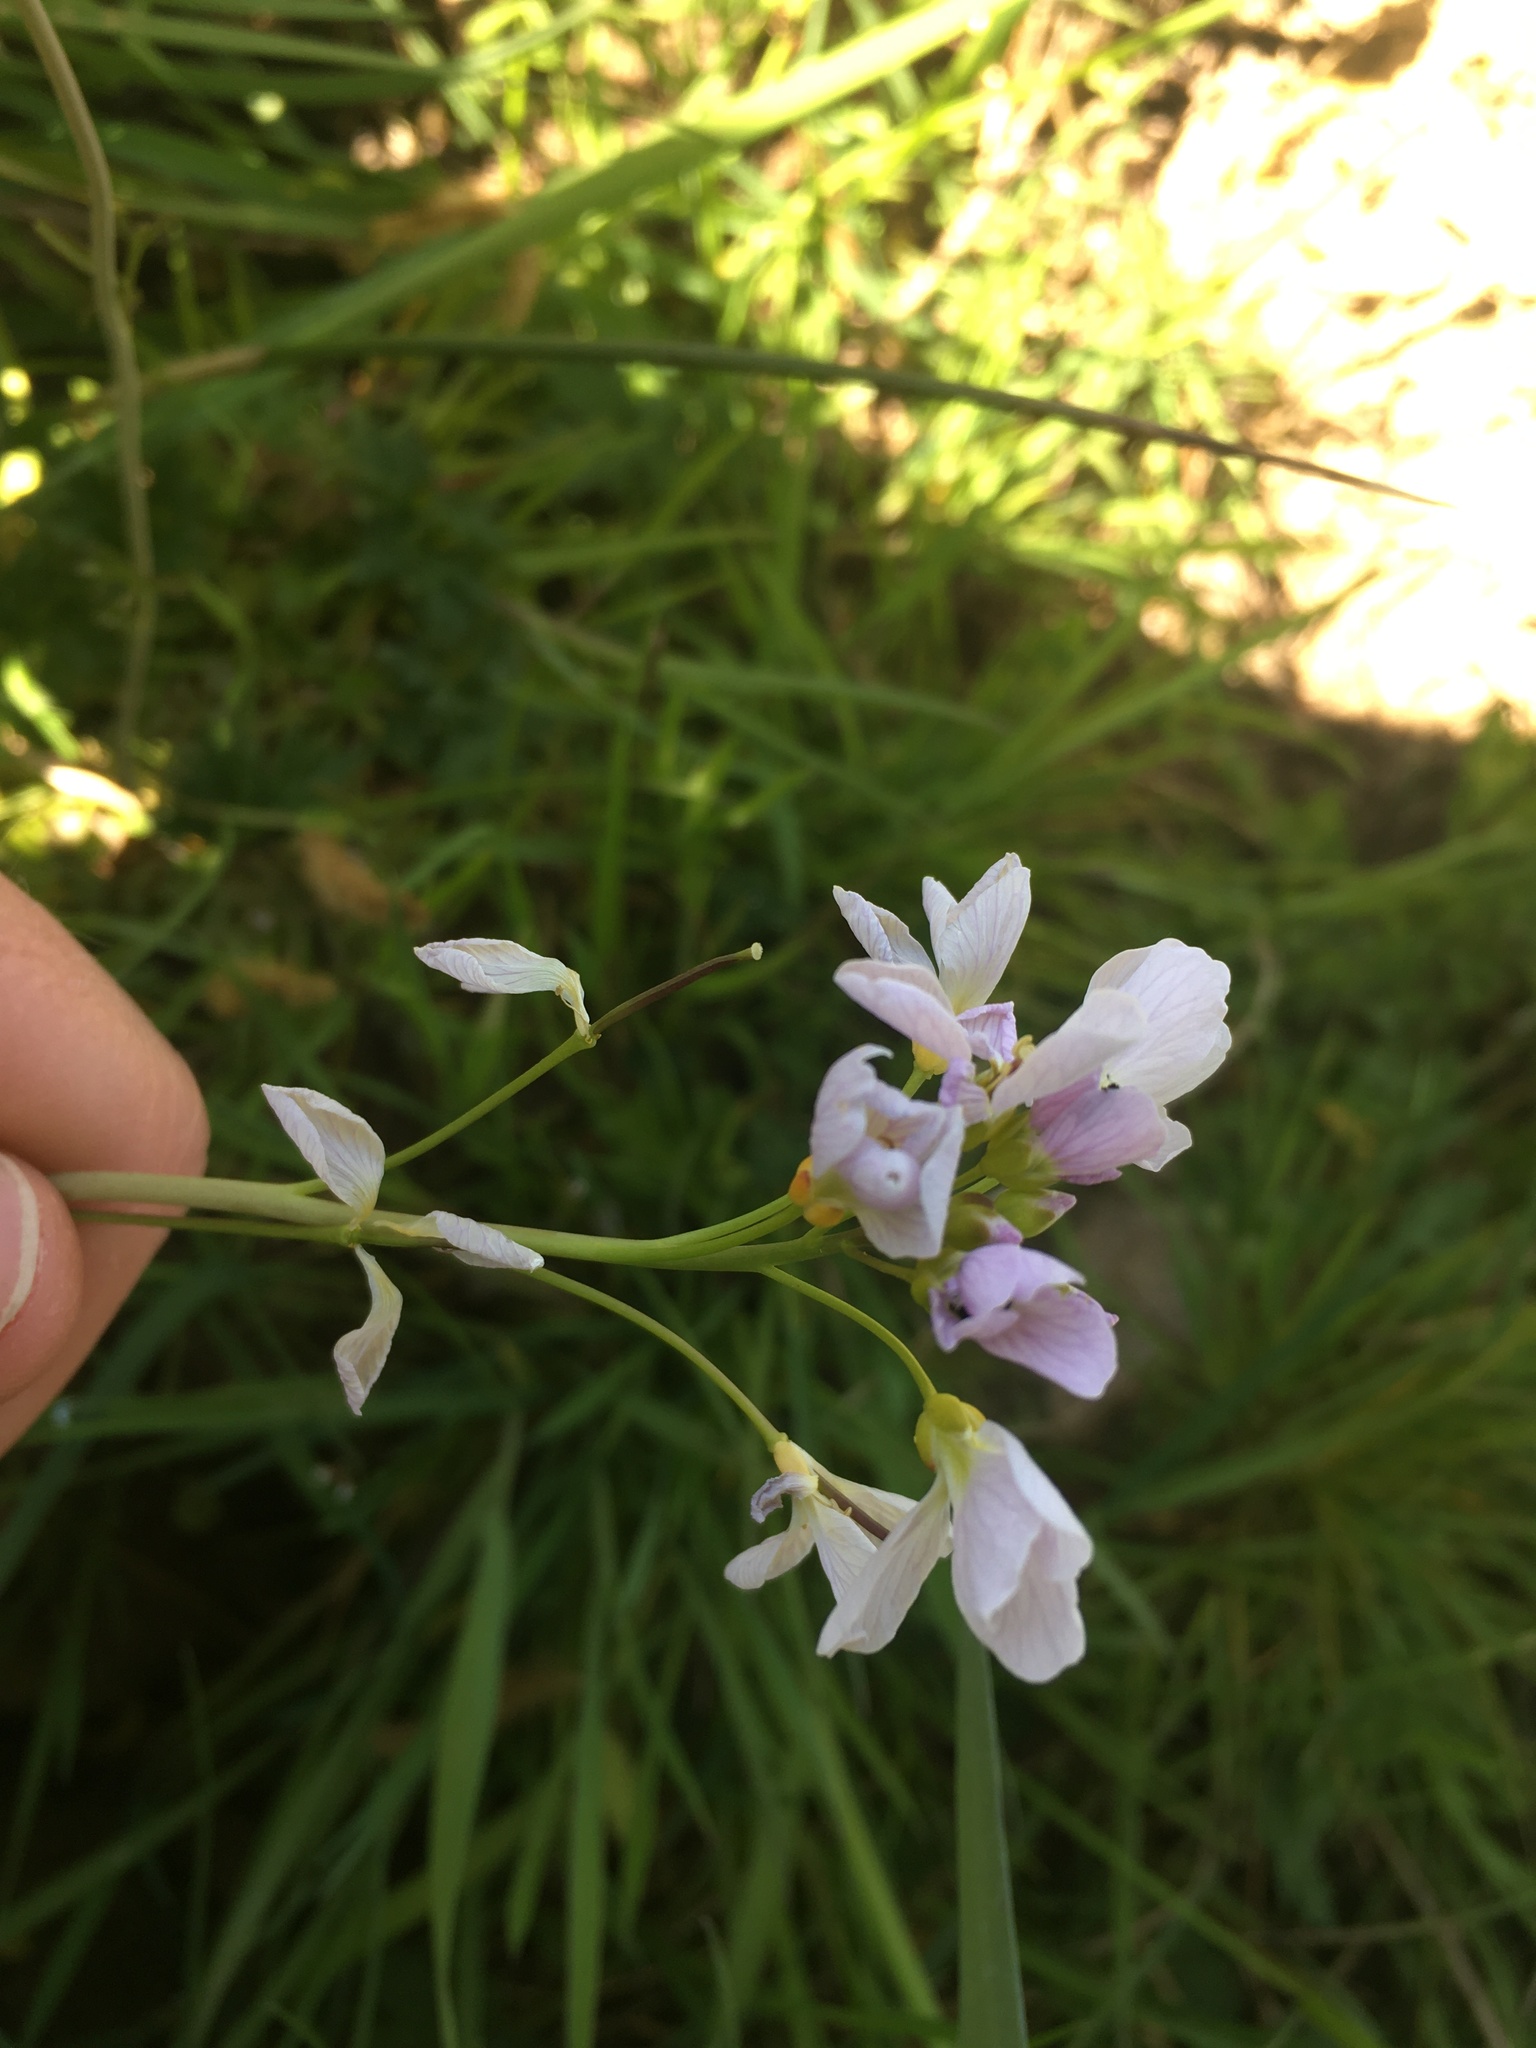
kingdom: Plantae
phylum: Tracheophyta
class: Magnoliopsida
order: Brassicales
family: Brassicaceae
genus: Cardamine
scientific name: Cardamine pratensis
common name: Cuckoo flower
